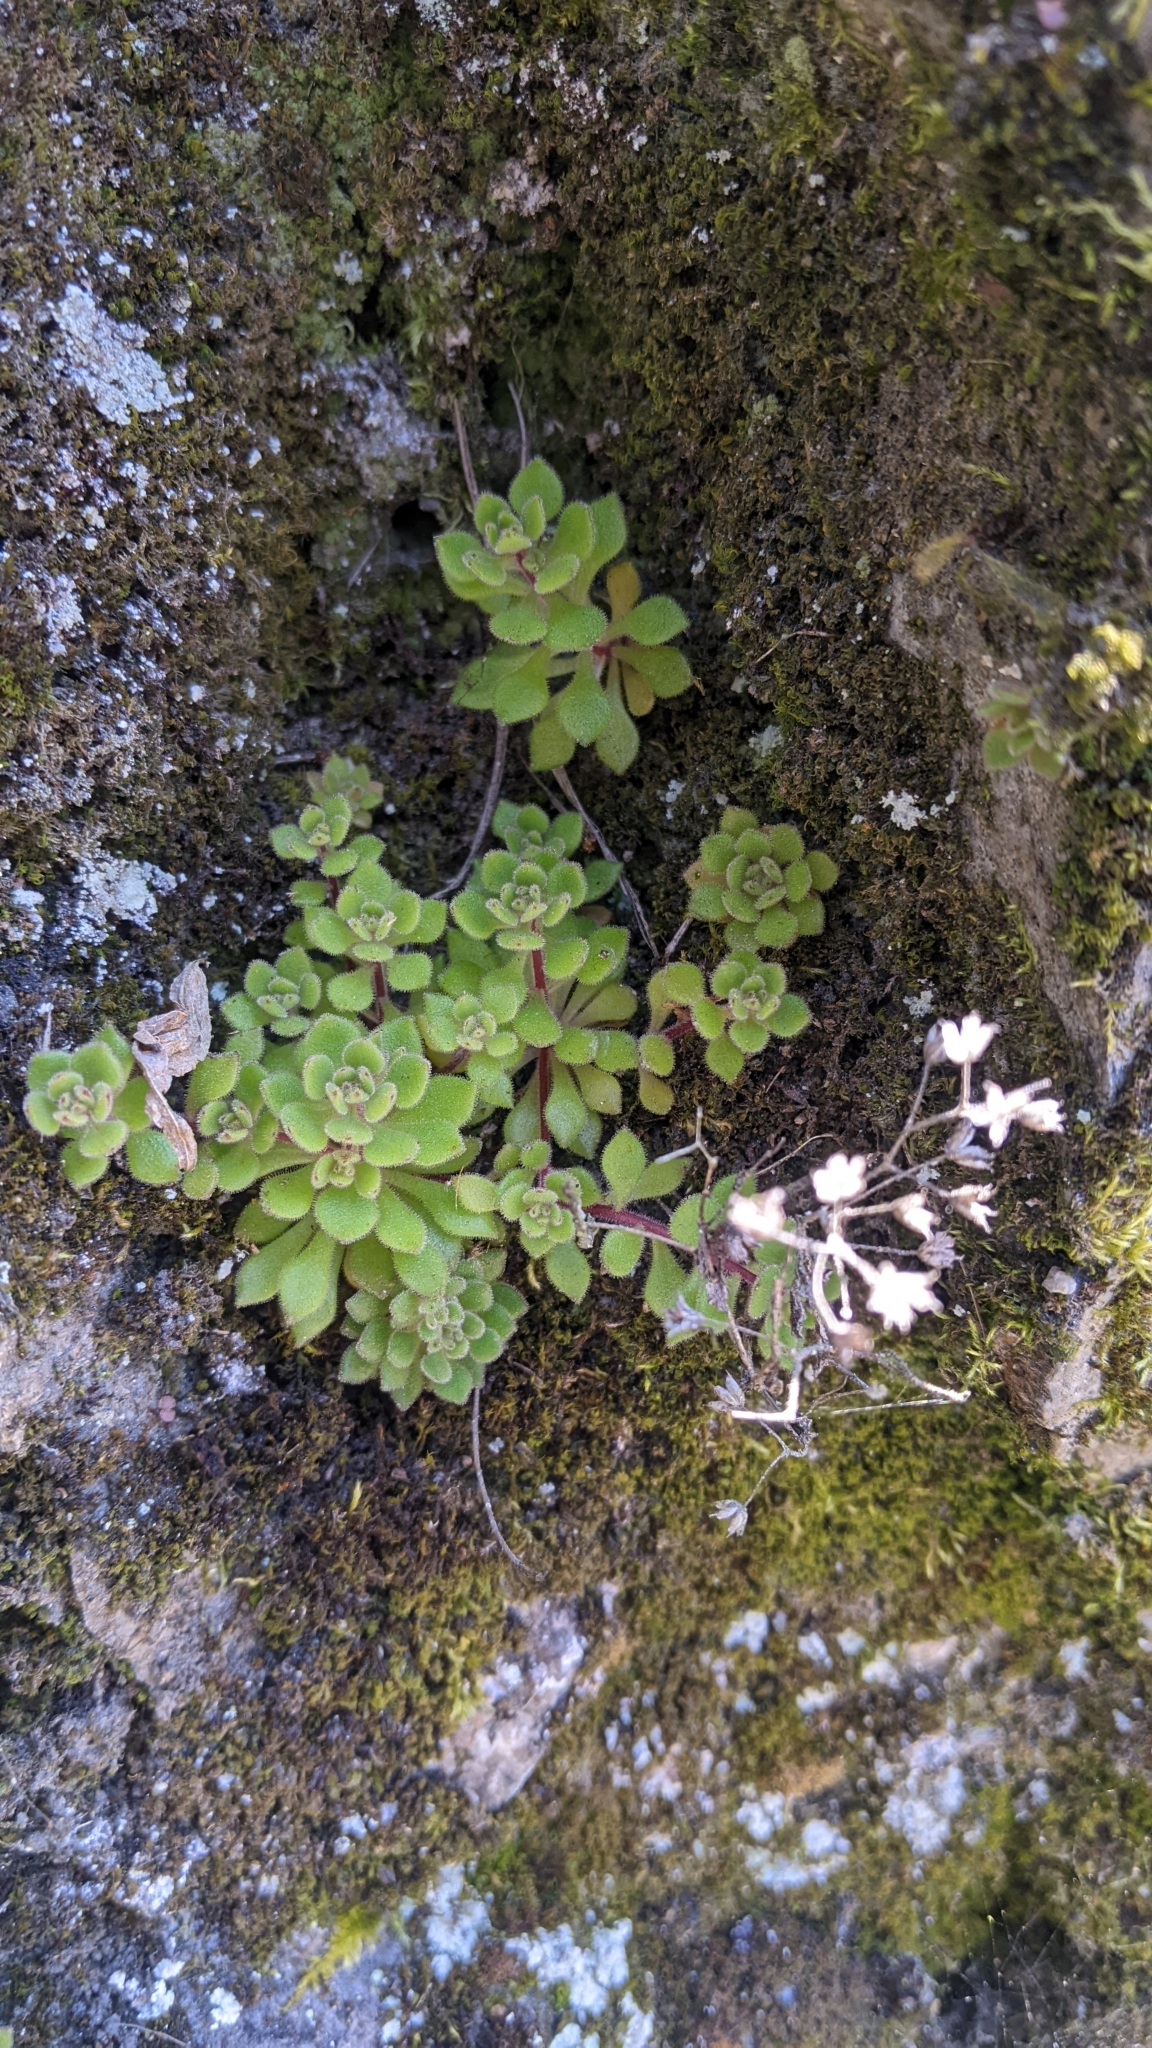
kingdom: Plantae
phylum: Tracheophyta
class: Magnoliopsida
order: Saxifragales
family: Crassulaceae
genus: Sedum
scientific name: Sedum stellariifolium
